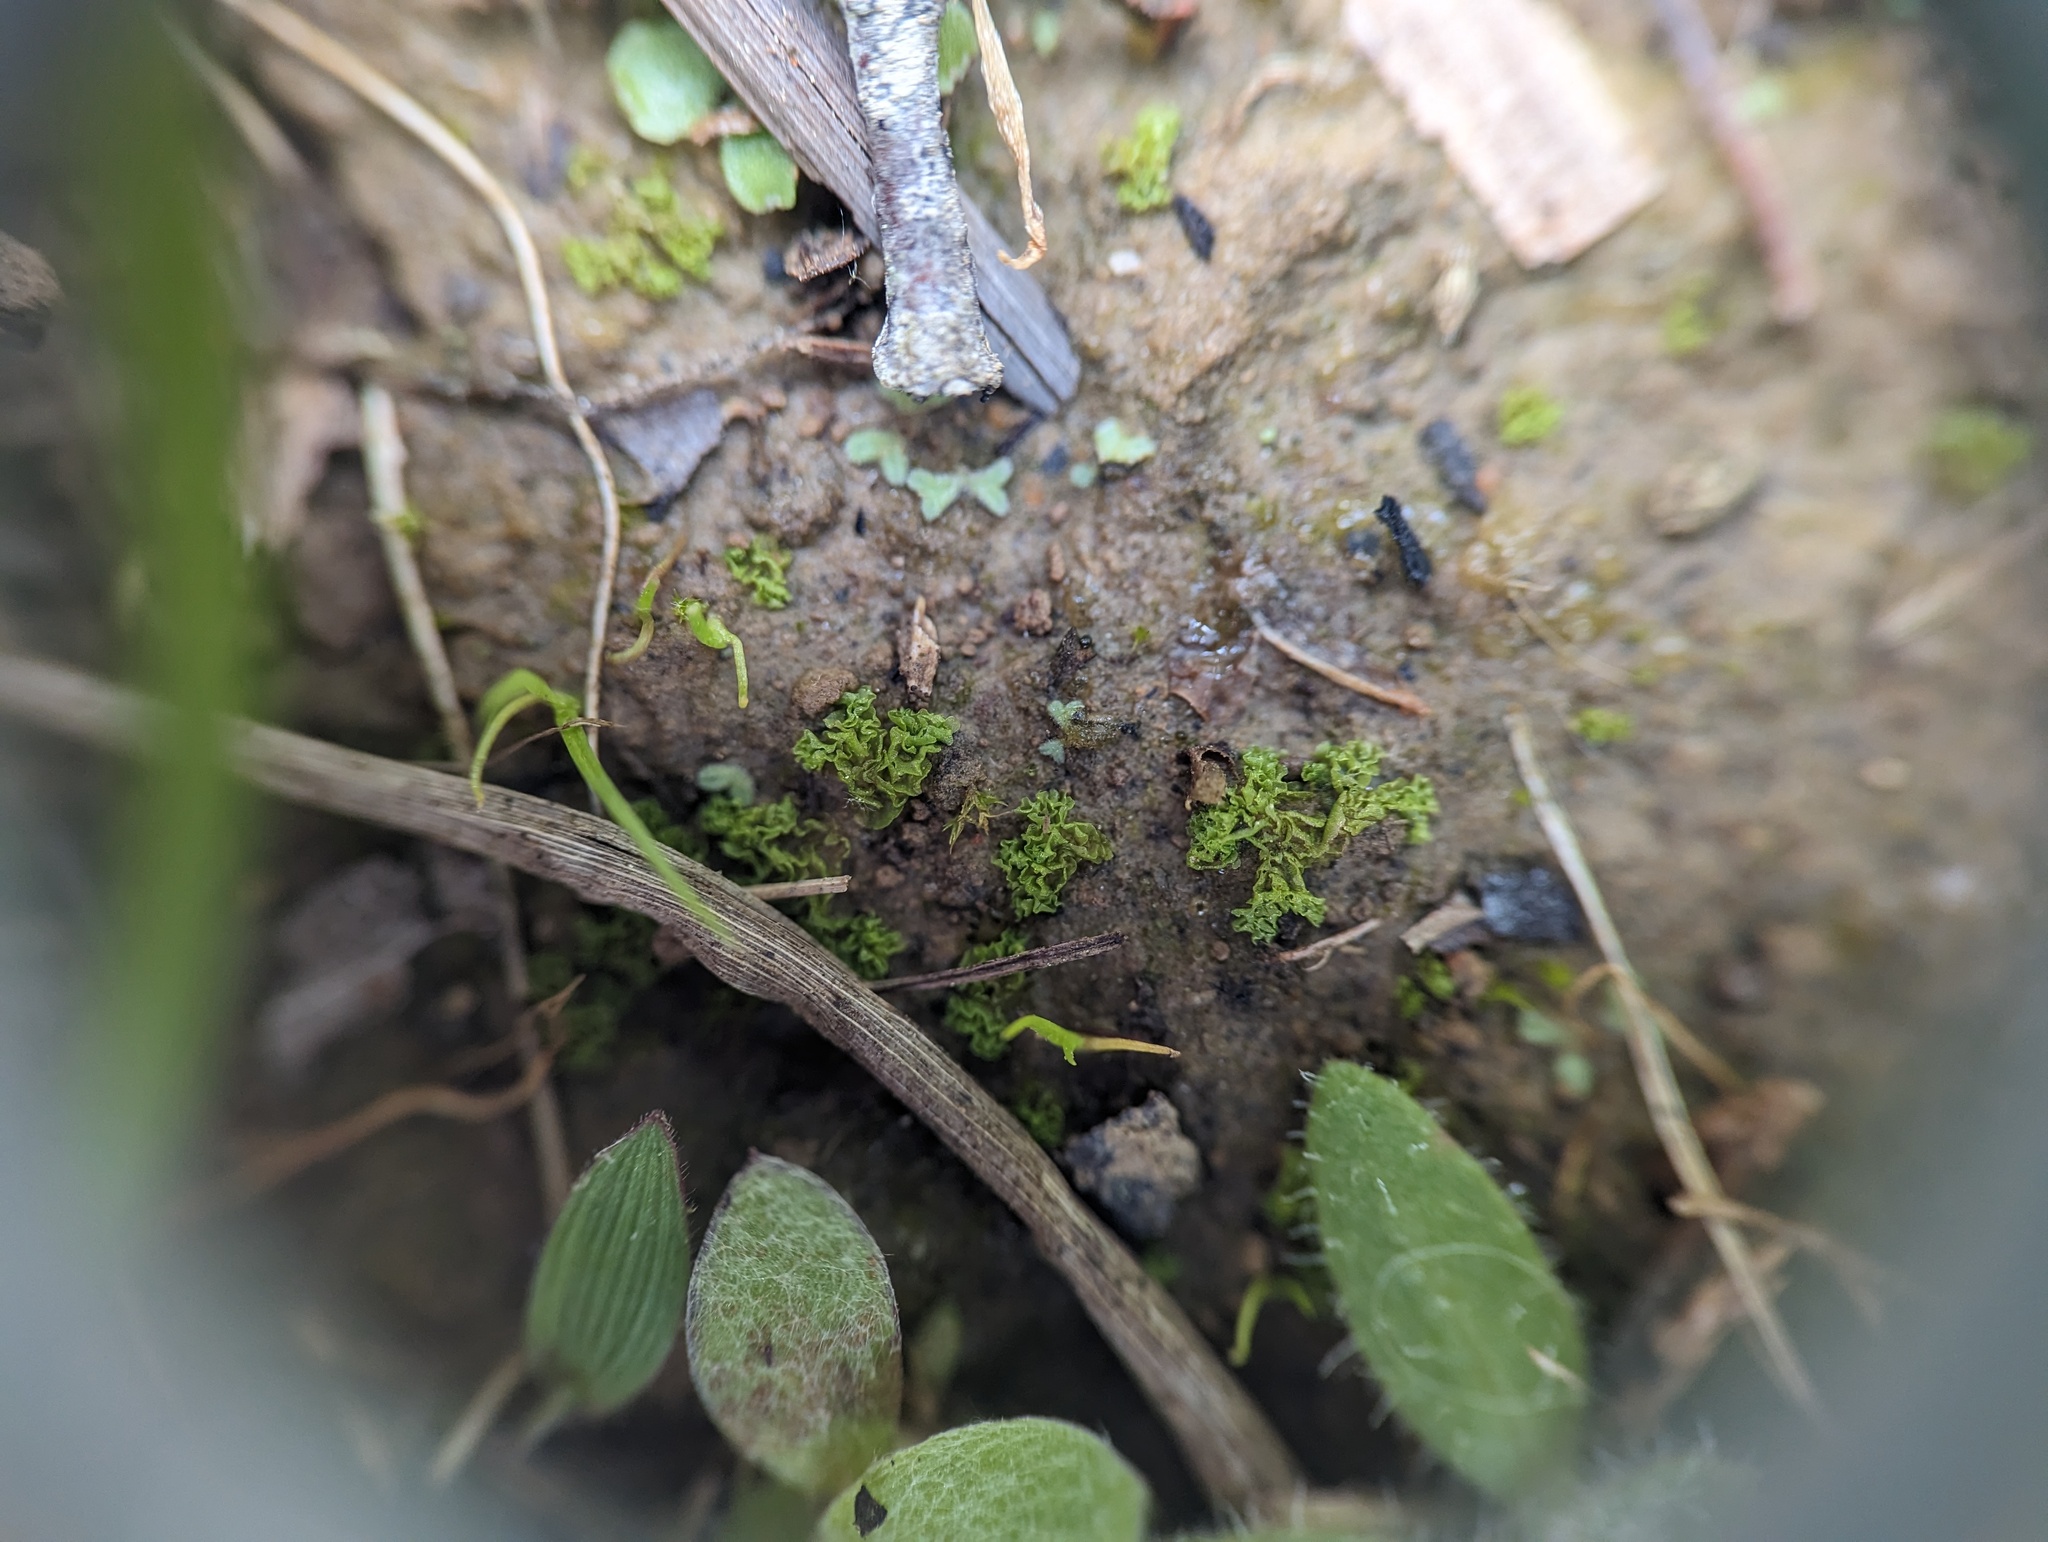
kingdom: Plantae
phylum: Marchantiophyta
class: Jungermanniopsida
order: Fossombroniales
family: Fossombroniaceae
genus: Fossombronia
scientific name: Fossombronia foveolata
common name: Pitted frillwort
